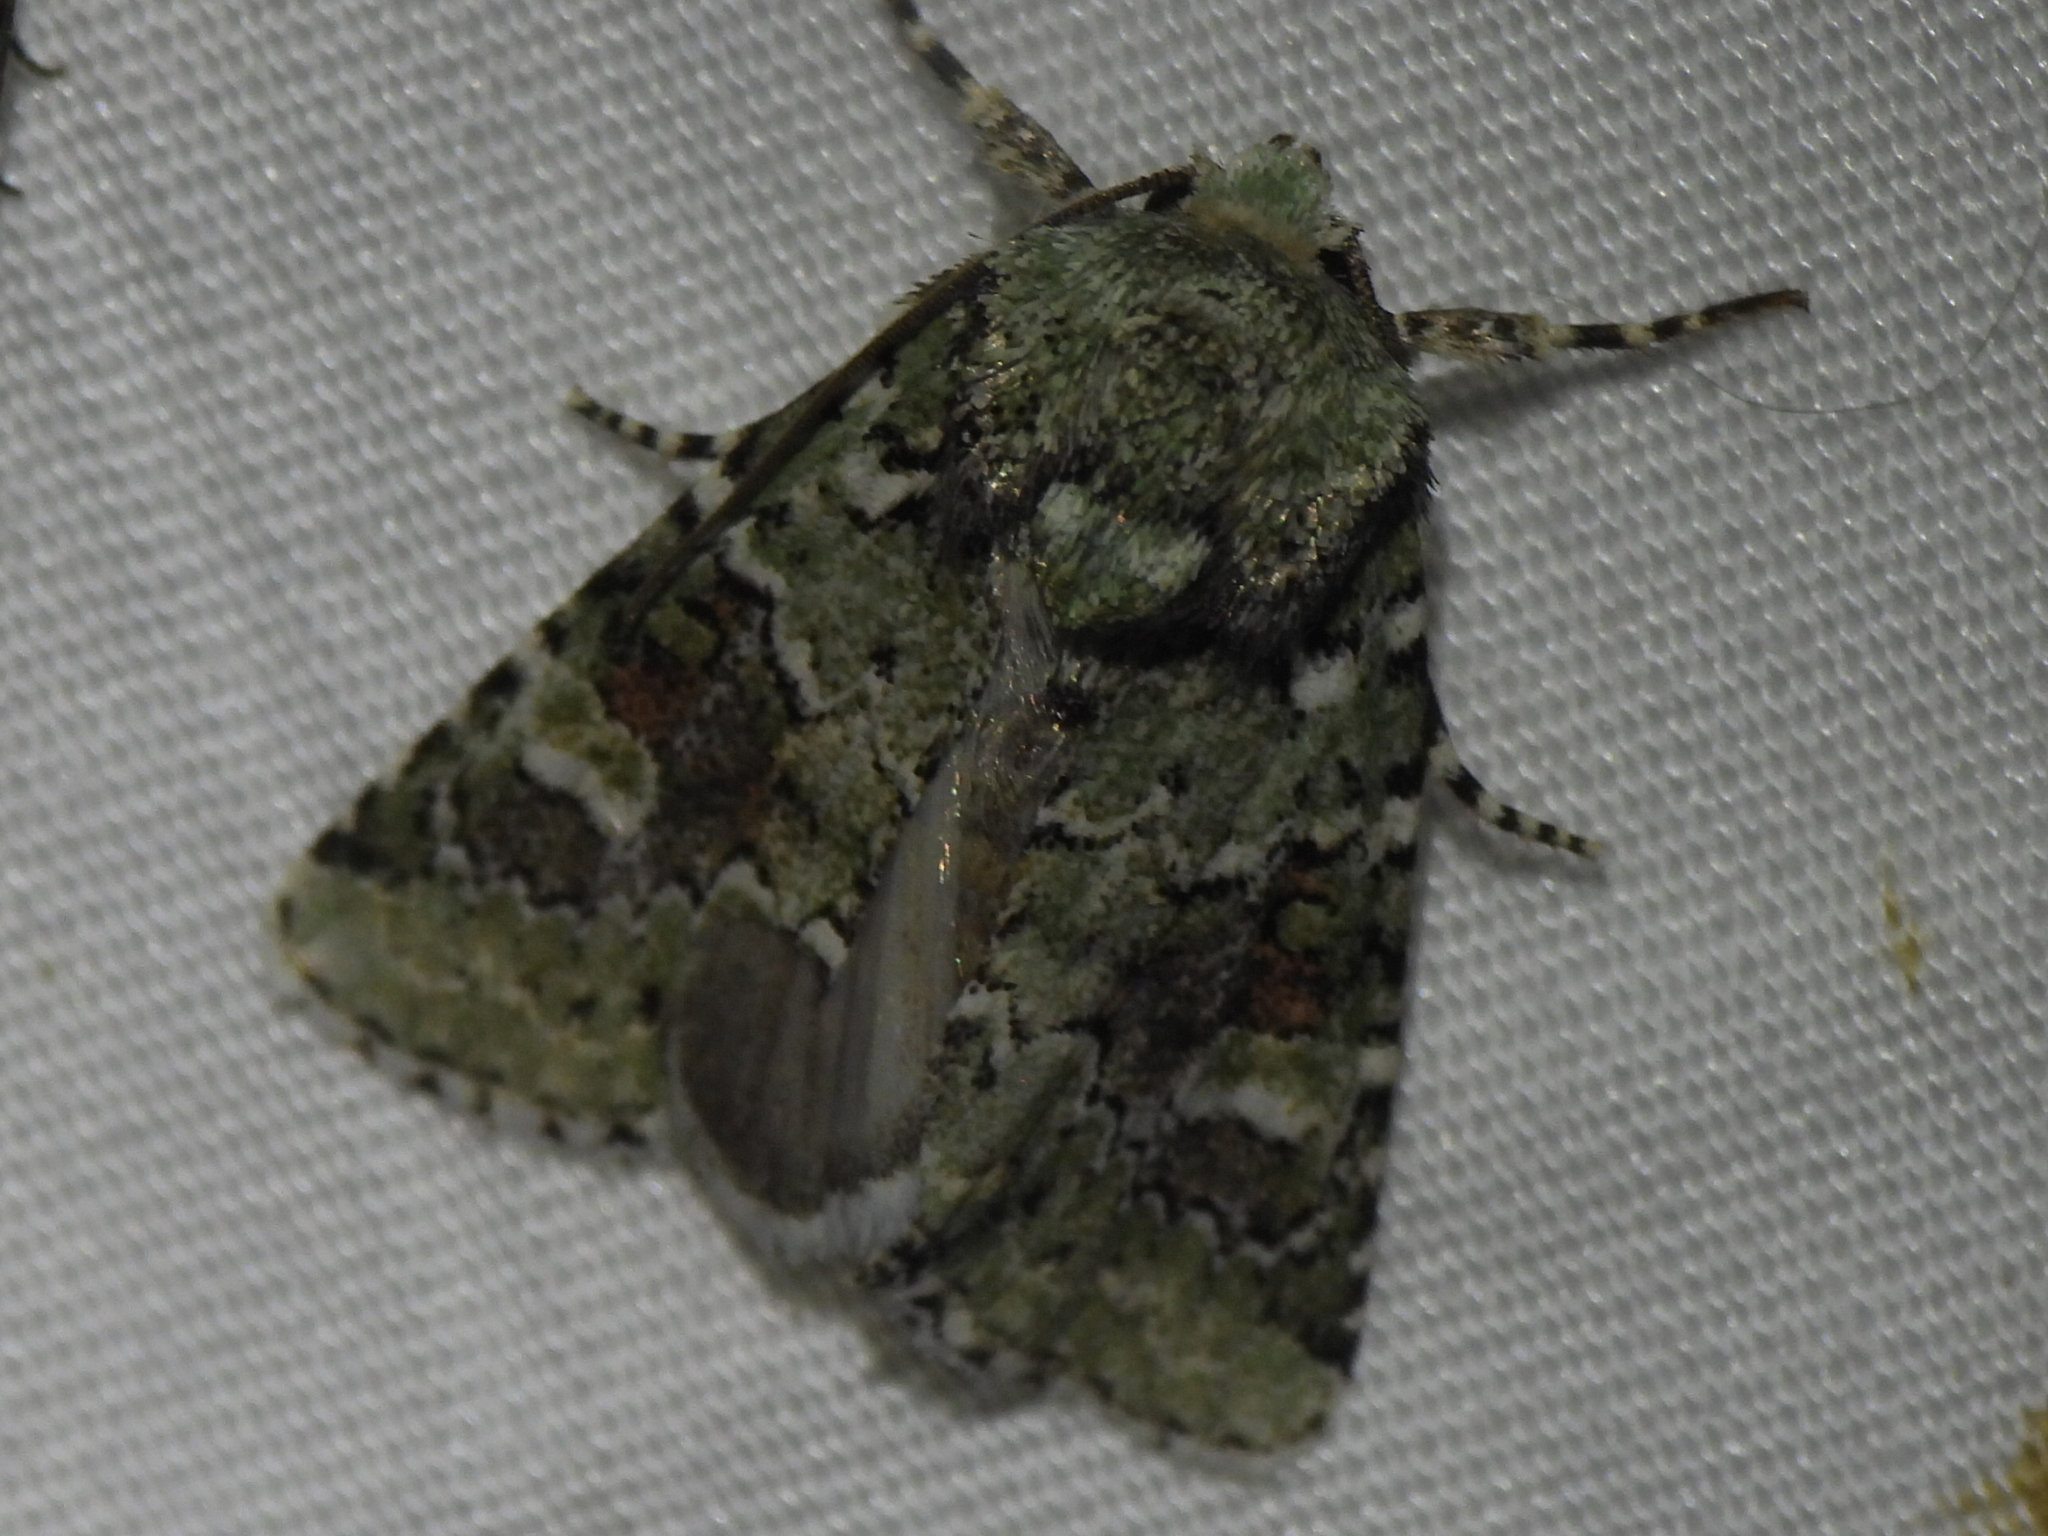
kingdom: Animalia
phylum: Arthropoda
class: Insecta
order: Lepidoptera
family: Noctuidae
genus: Lacinipolia
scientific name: Lacinipolia laudabilis
